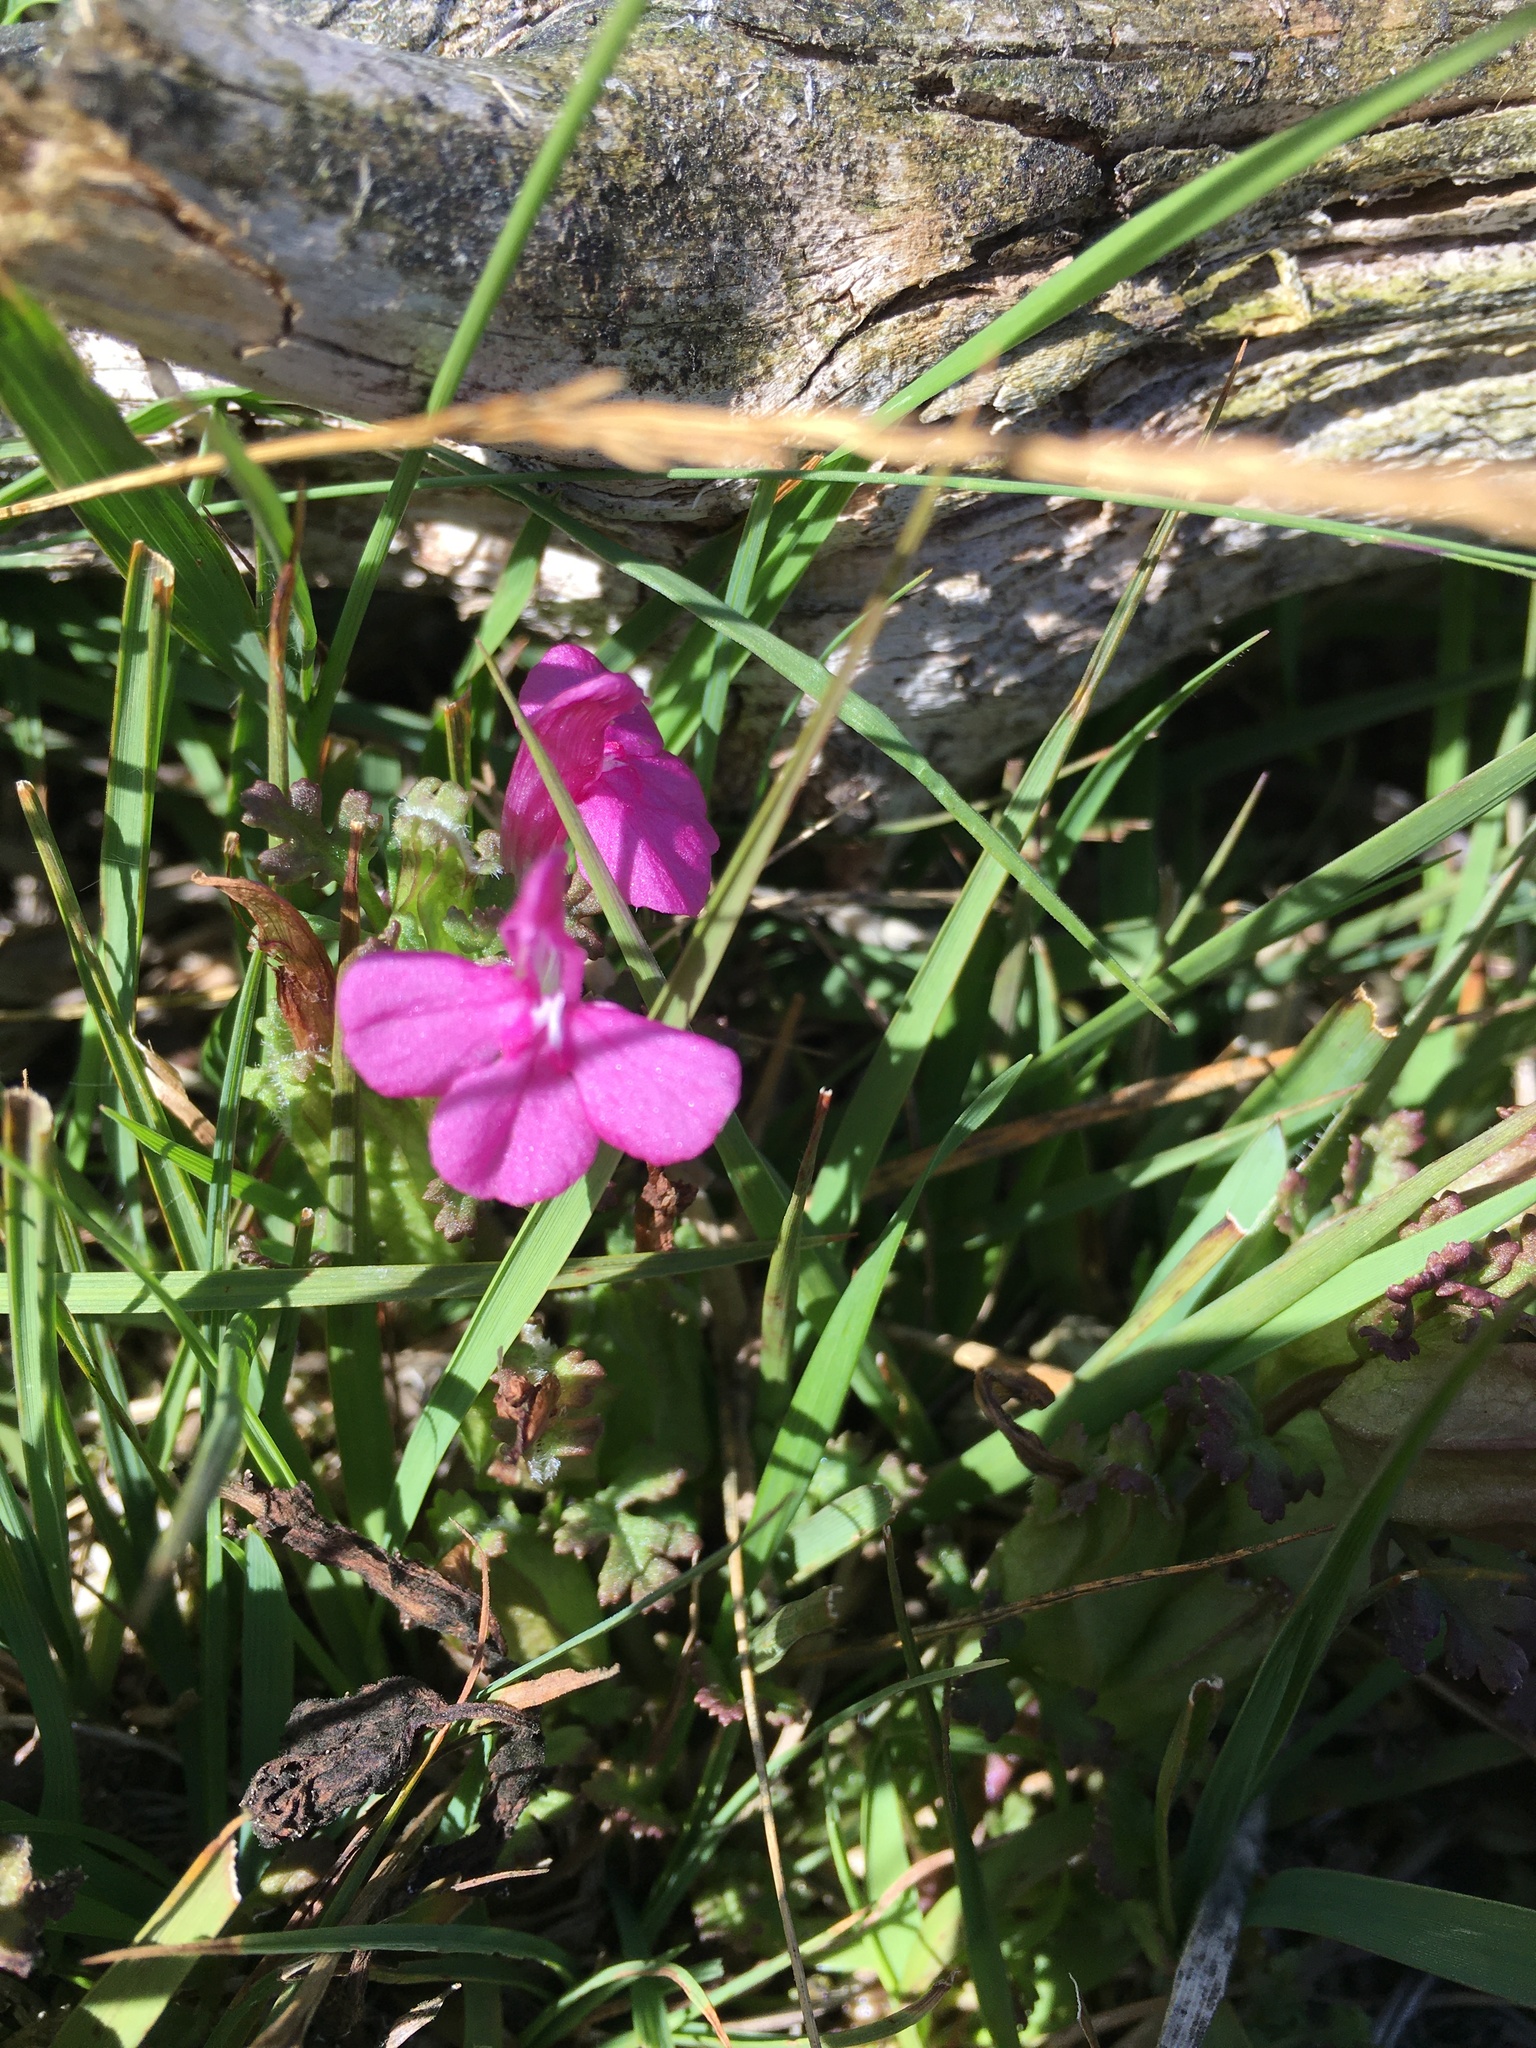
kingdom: Plantae
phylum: Tracheophyta
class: Magnoliopsida
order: Lamiales
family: Orobanchaceae
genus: Pedicularis
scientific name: Pedicularis sylvatica
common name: Lousewort
